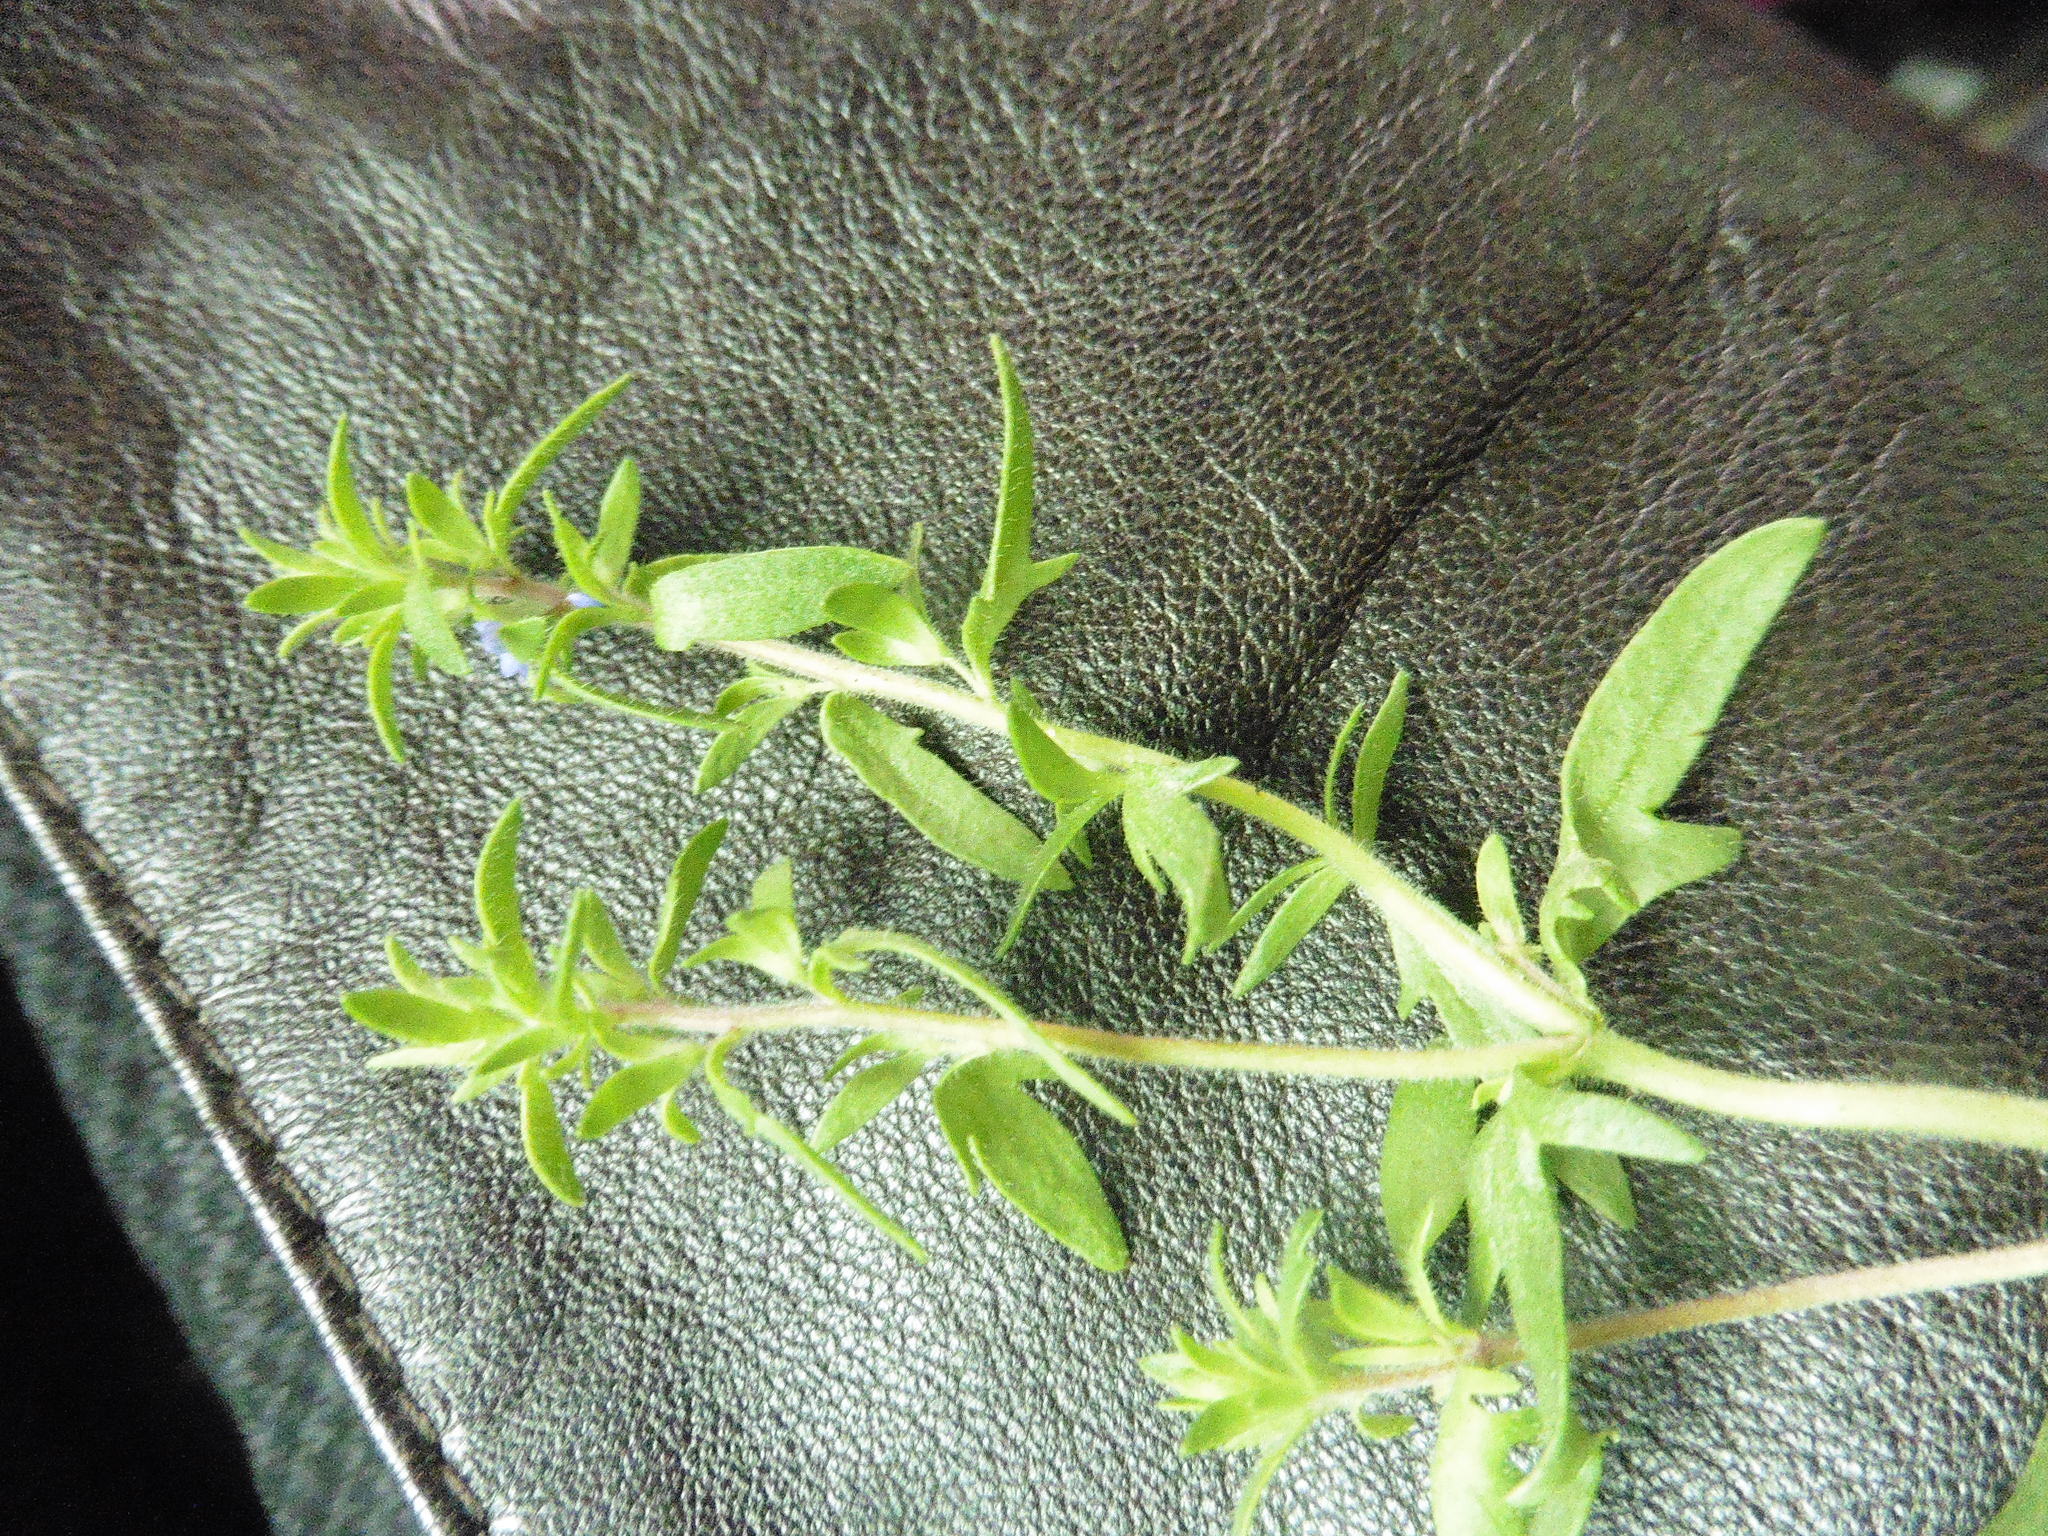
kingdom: Plantae
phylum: Tracheophyta
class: Magnoliopsida
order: Lamiales
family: Plantaginaceae
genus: Veronica
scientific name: Veronica verna
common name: Spring speedwell
